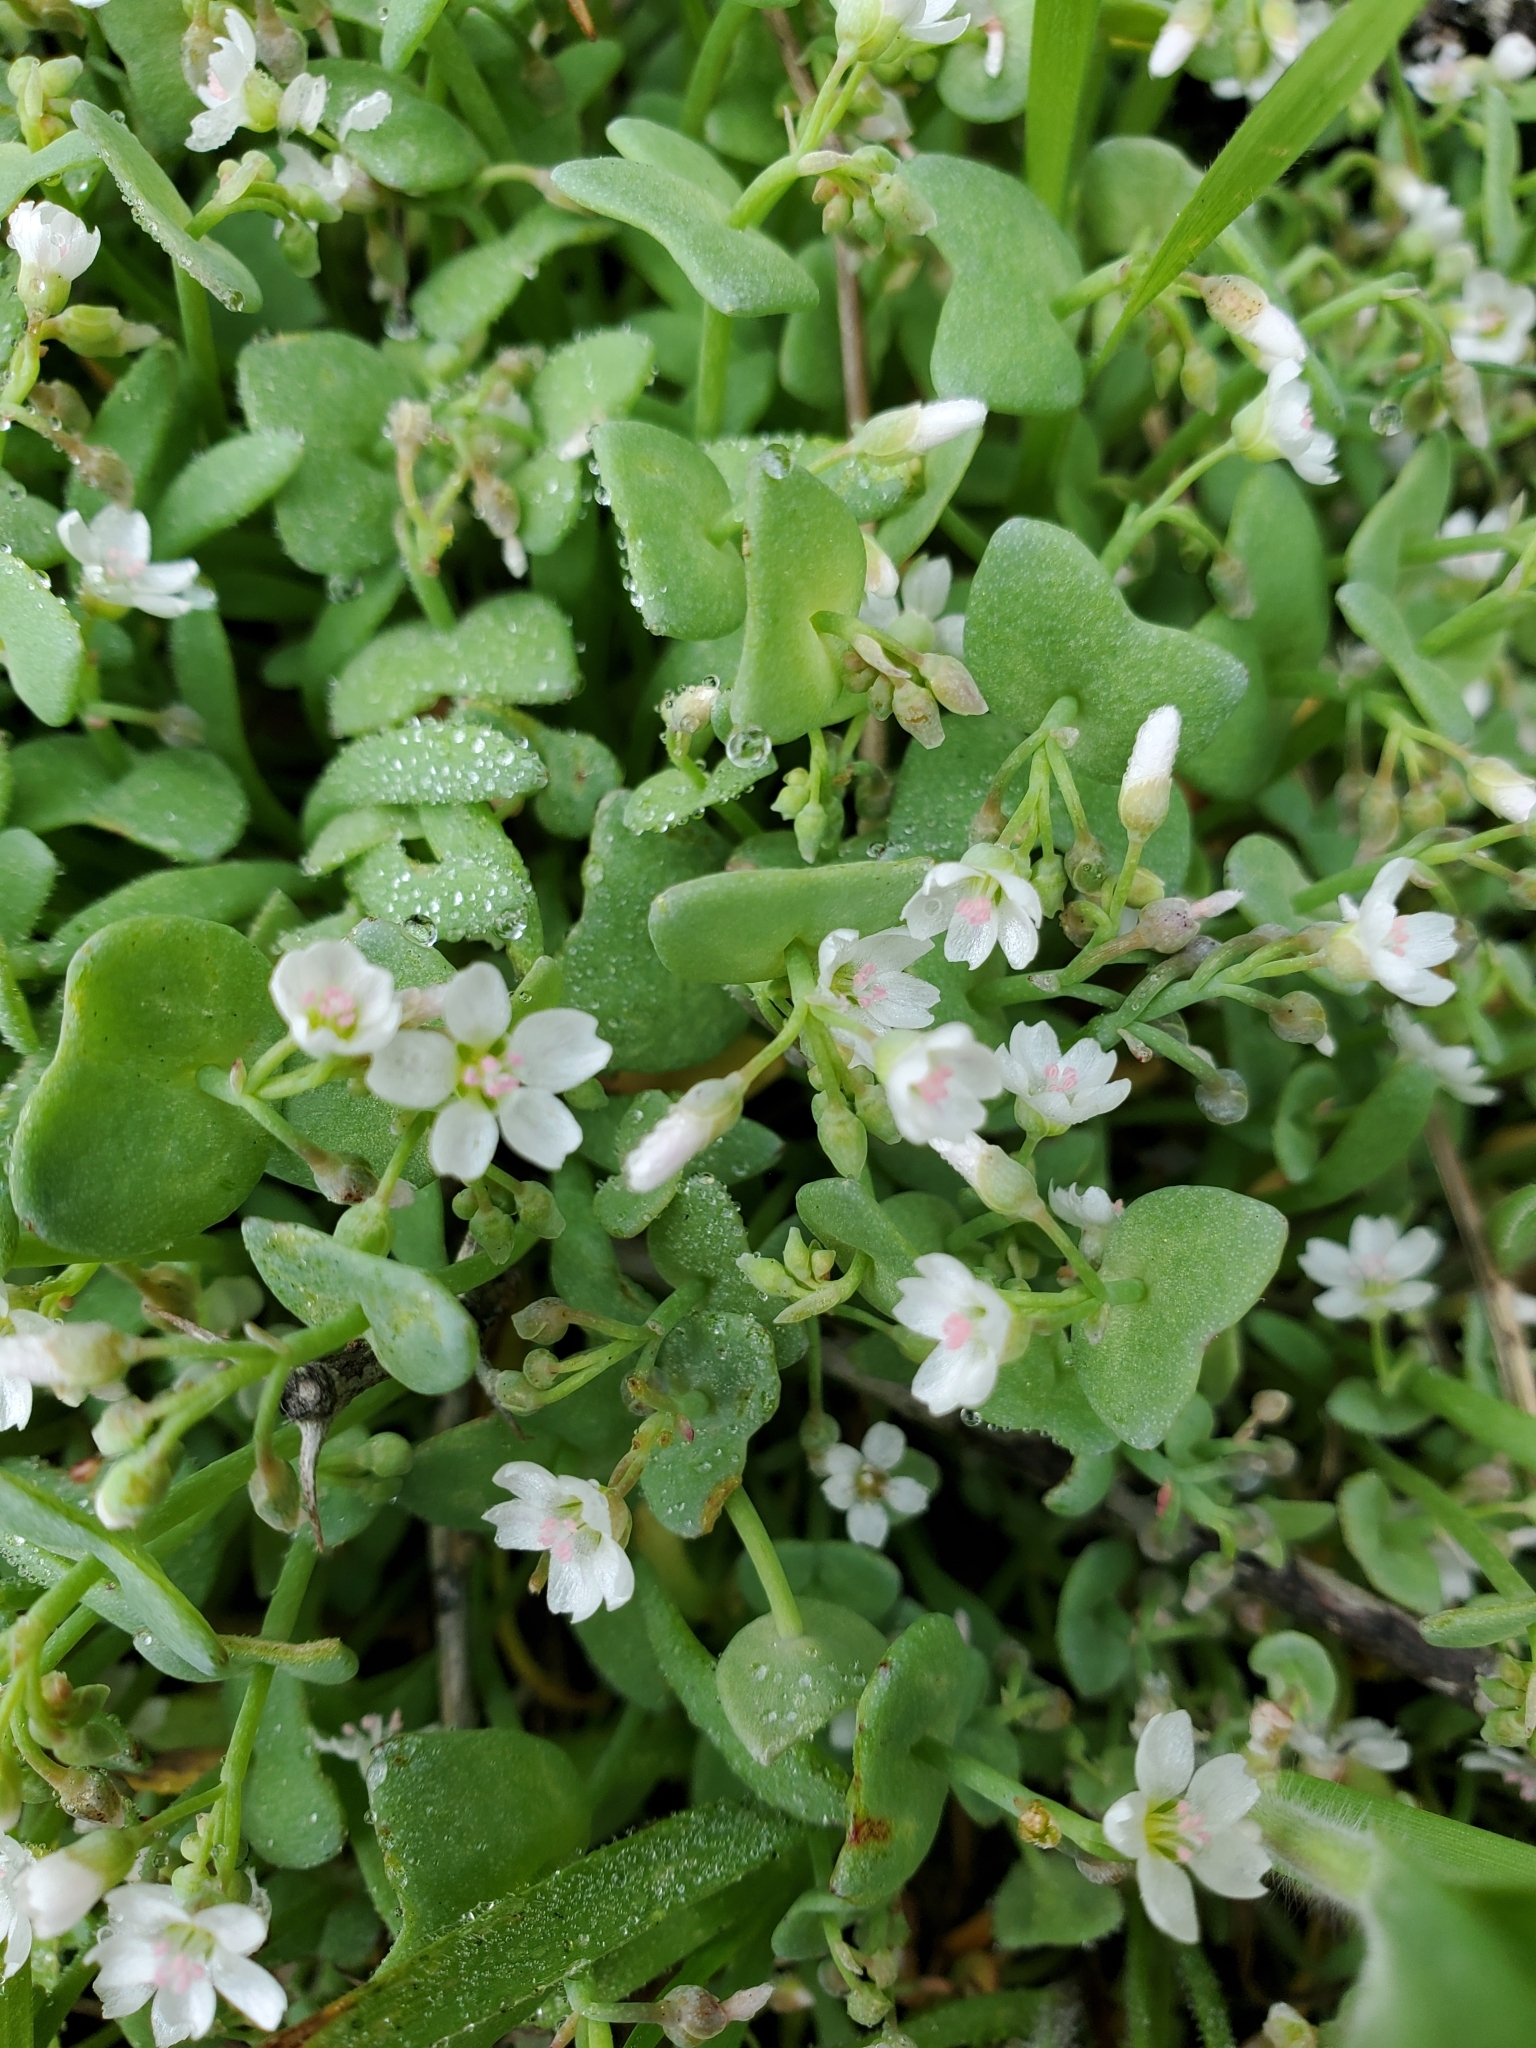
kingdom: Plantae
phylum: Tracheophyta
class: Magnoliopsida
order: Caryophyllales
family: Montiaceae
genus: Claytonia
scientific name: Claytonia exigua
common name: Pale spring beauty
